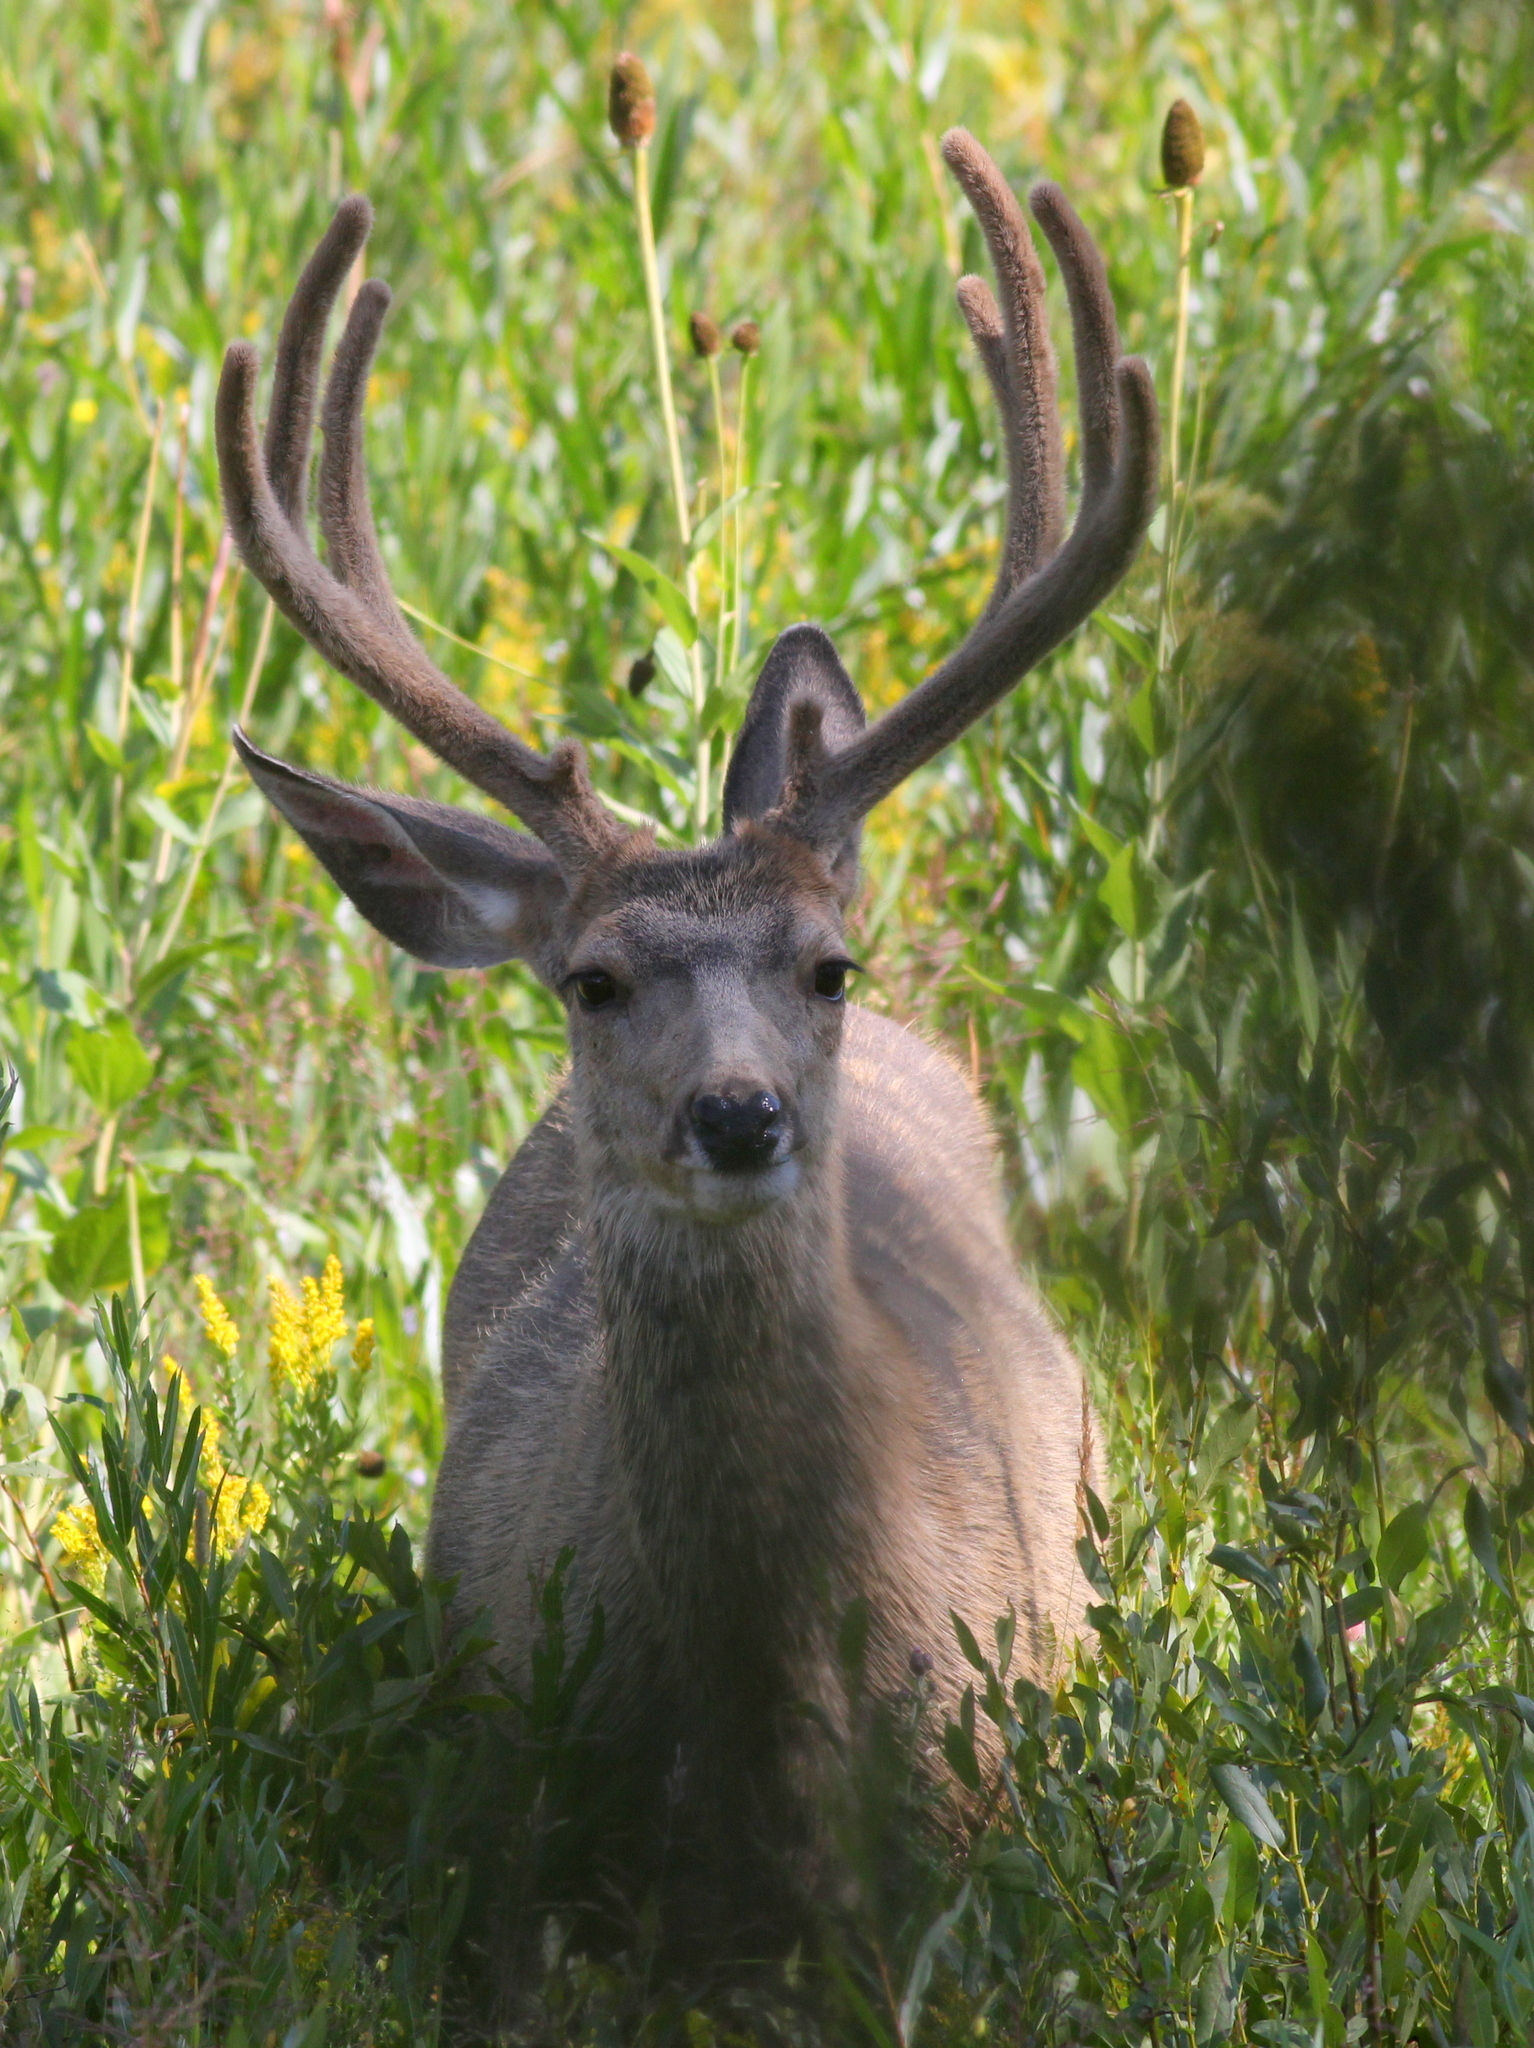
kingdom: Animalia
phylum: Chordata
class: Mammalia
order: Artiodactyla
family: Cervidae
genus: Odocoileus
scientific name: Odocoileus hemionus
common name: Mule deer
